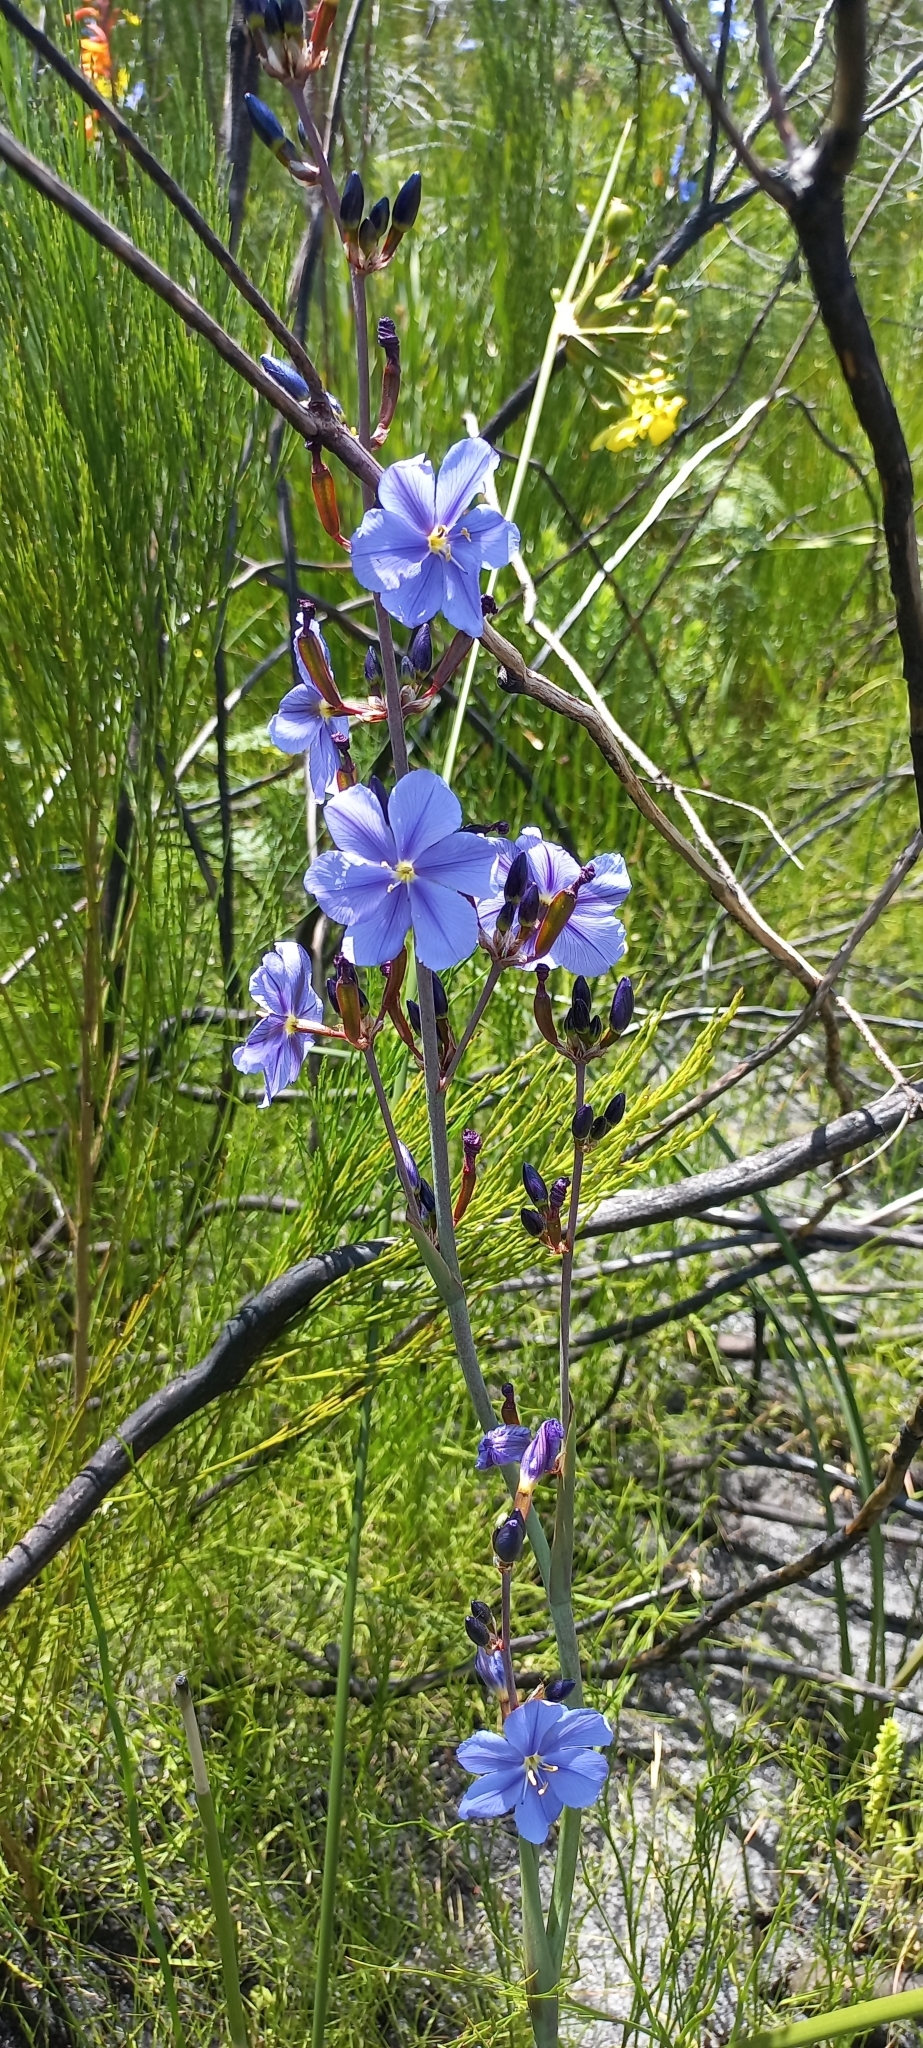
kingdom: Plantae
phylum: Tracheophyta
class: Liliopsida
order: Asparagales
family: Iridaceae
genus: Aristea
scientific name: Aristea bakeri
